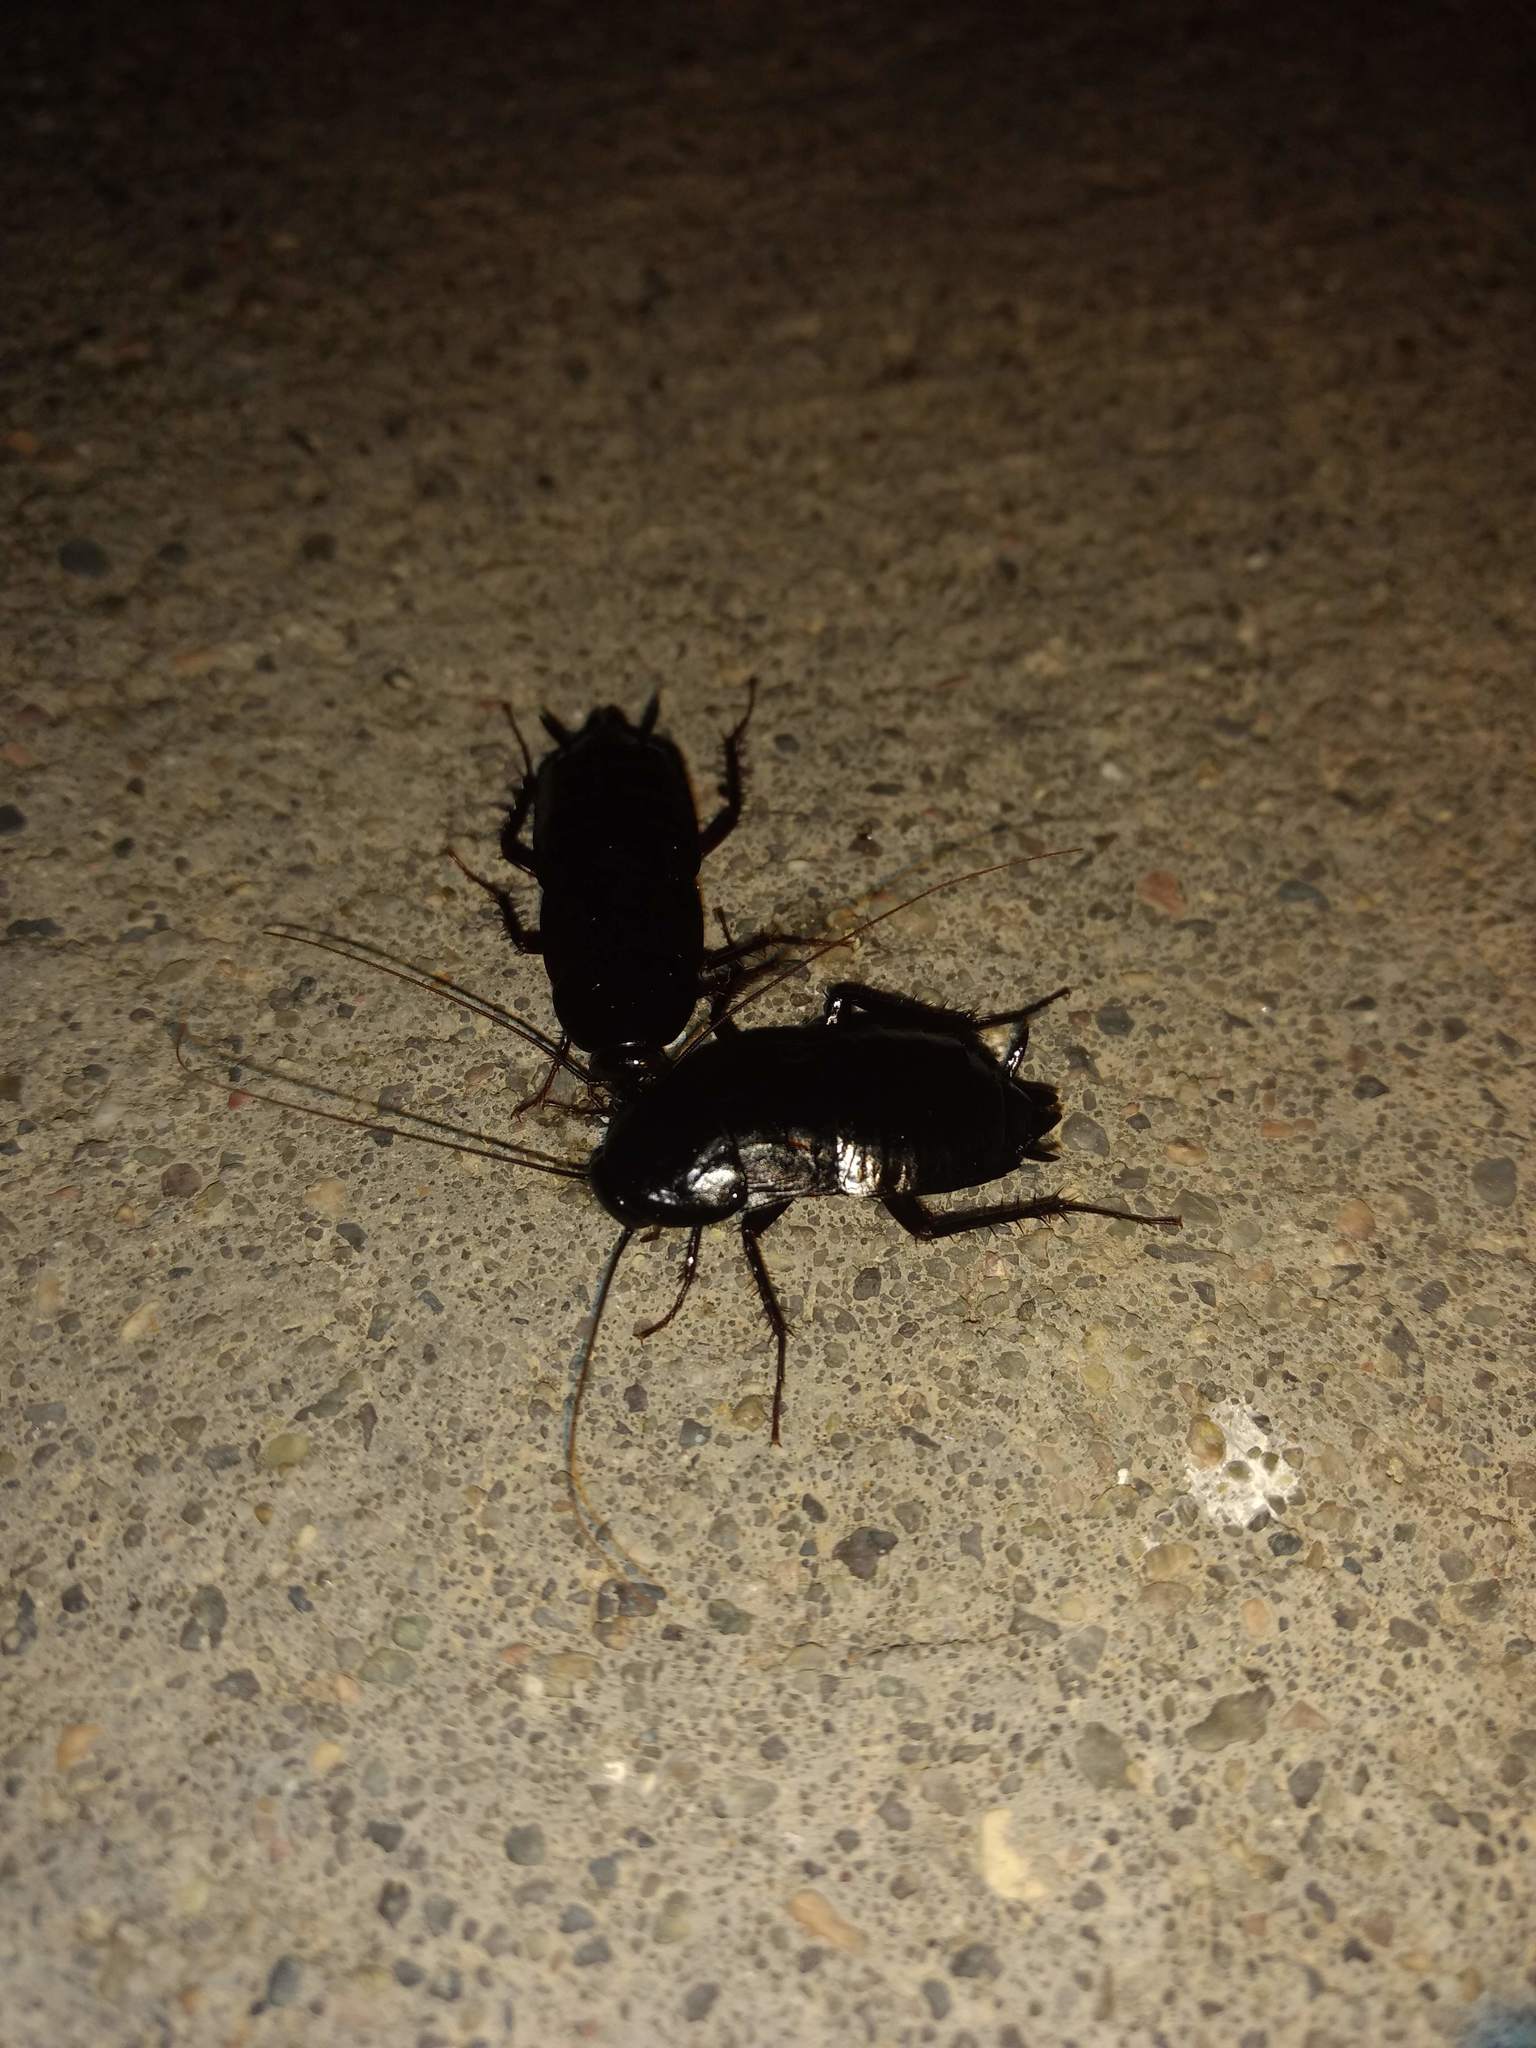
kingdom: Animalia
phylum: Arthropoda
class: Insecta
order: Blattodea
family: Blattidae
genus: Blatta
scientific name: Blatta orientalis
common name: Oriental cockroach
